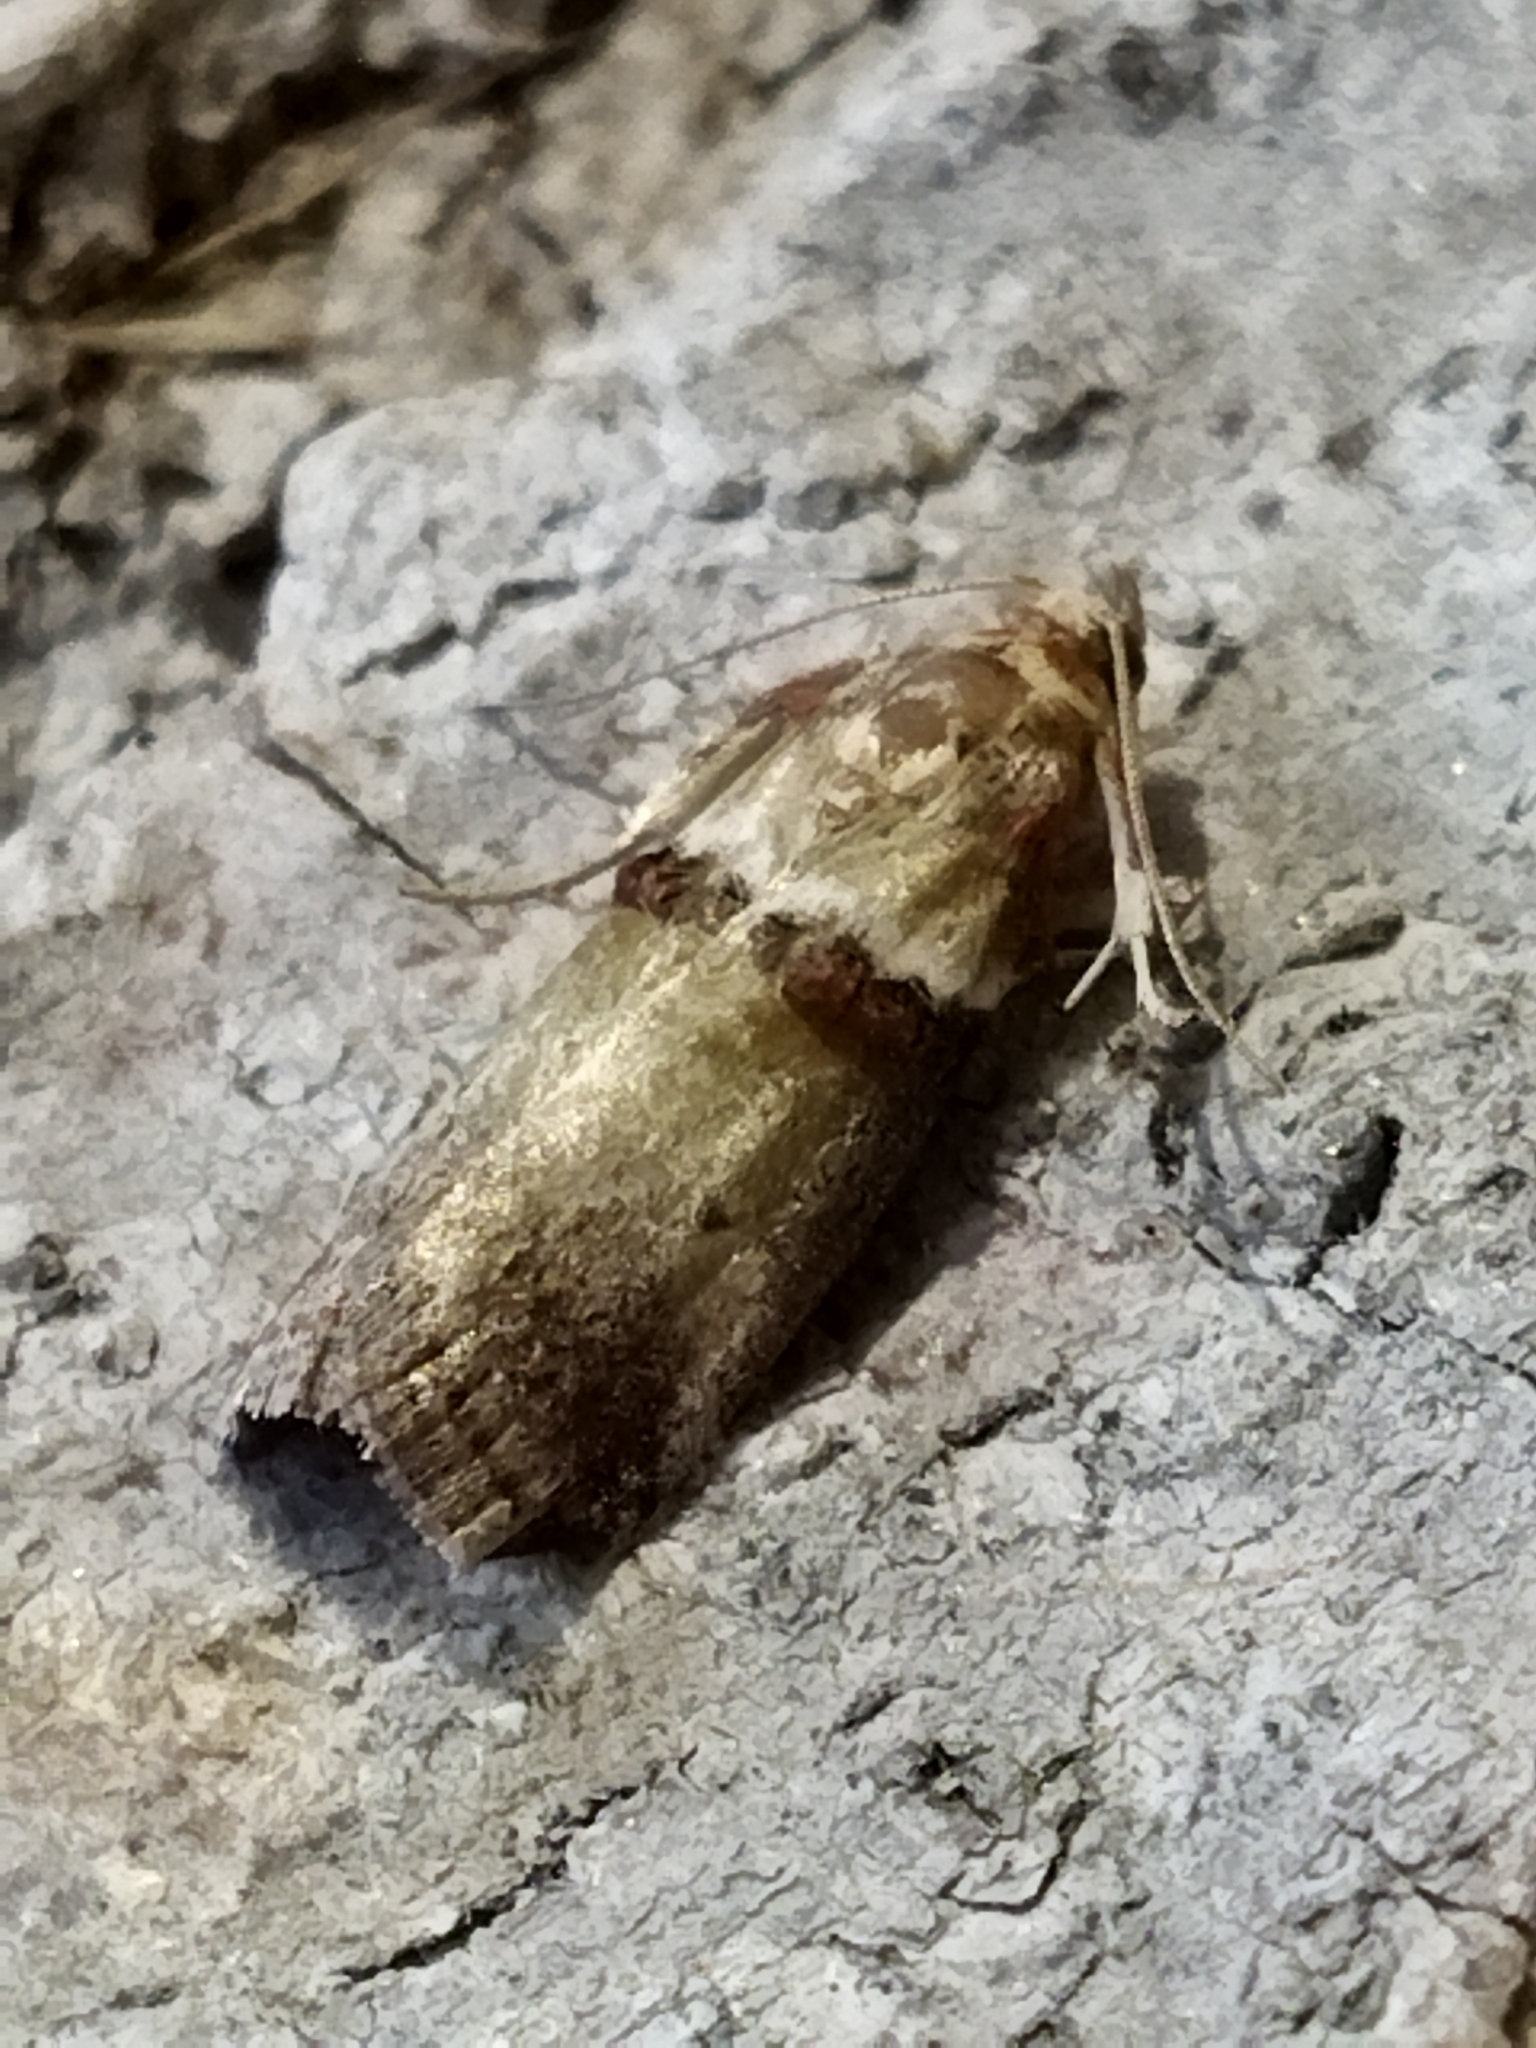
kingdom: Animalia
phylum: Arthropoda
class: Insecta
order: Lepidoptera
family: Pyralidae
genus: Acrobasis
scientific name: Acrobasis tumidana
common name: Scarce oak knot-horn
